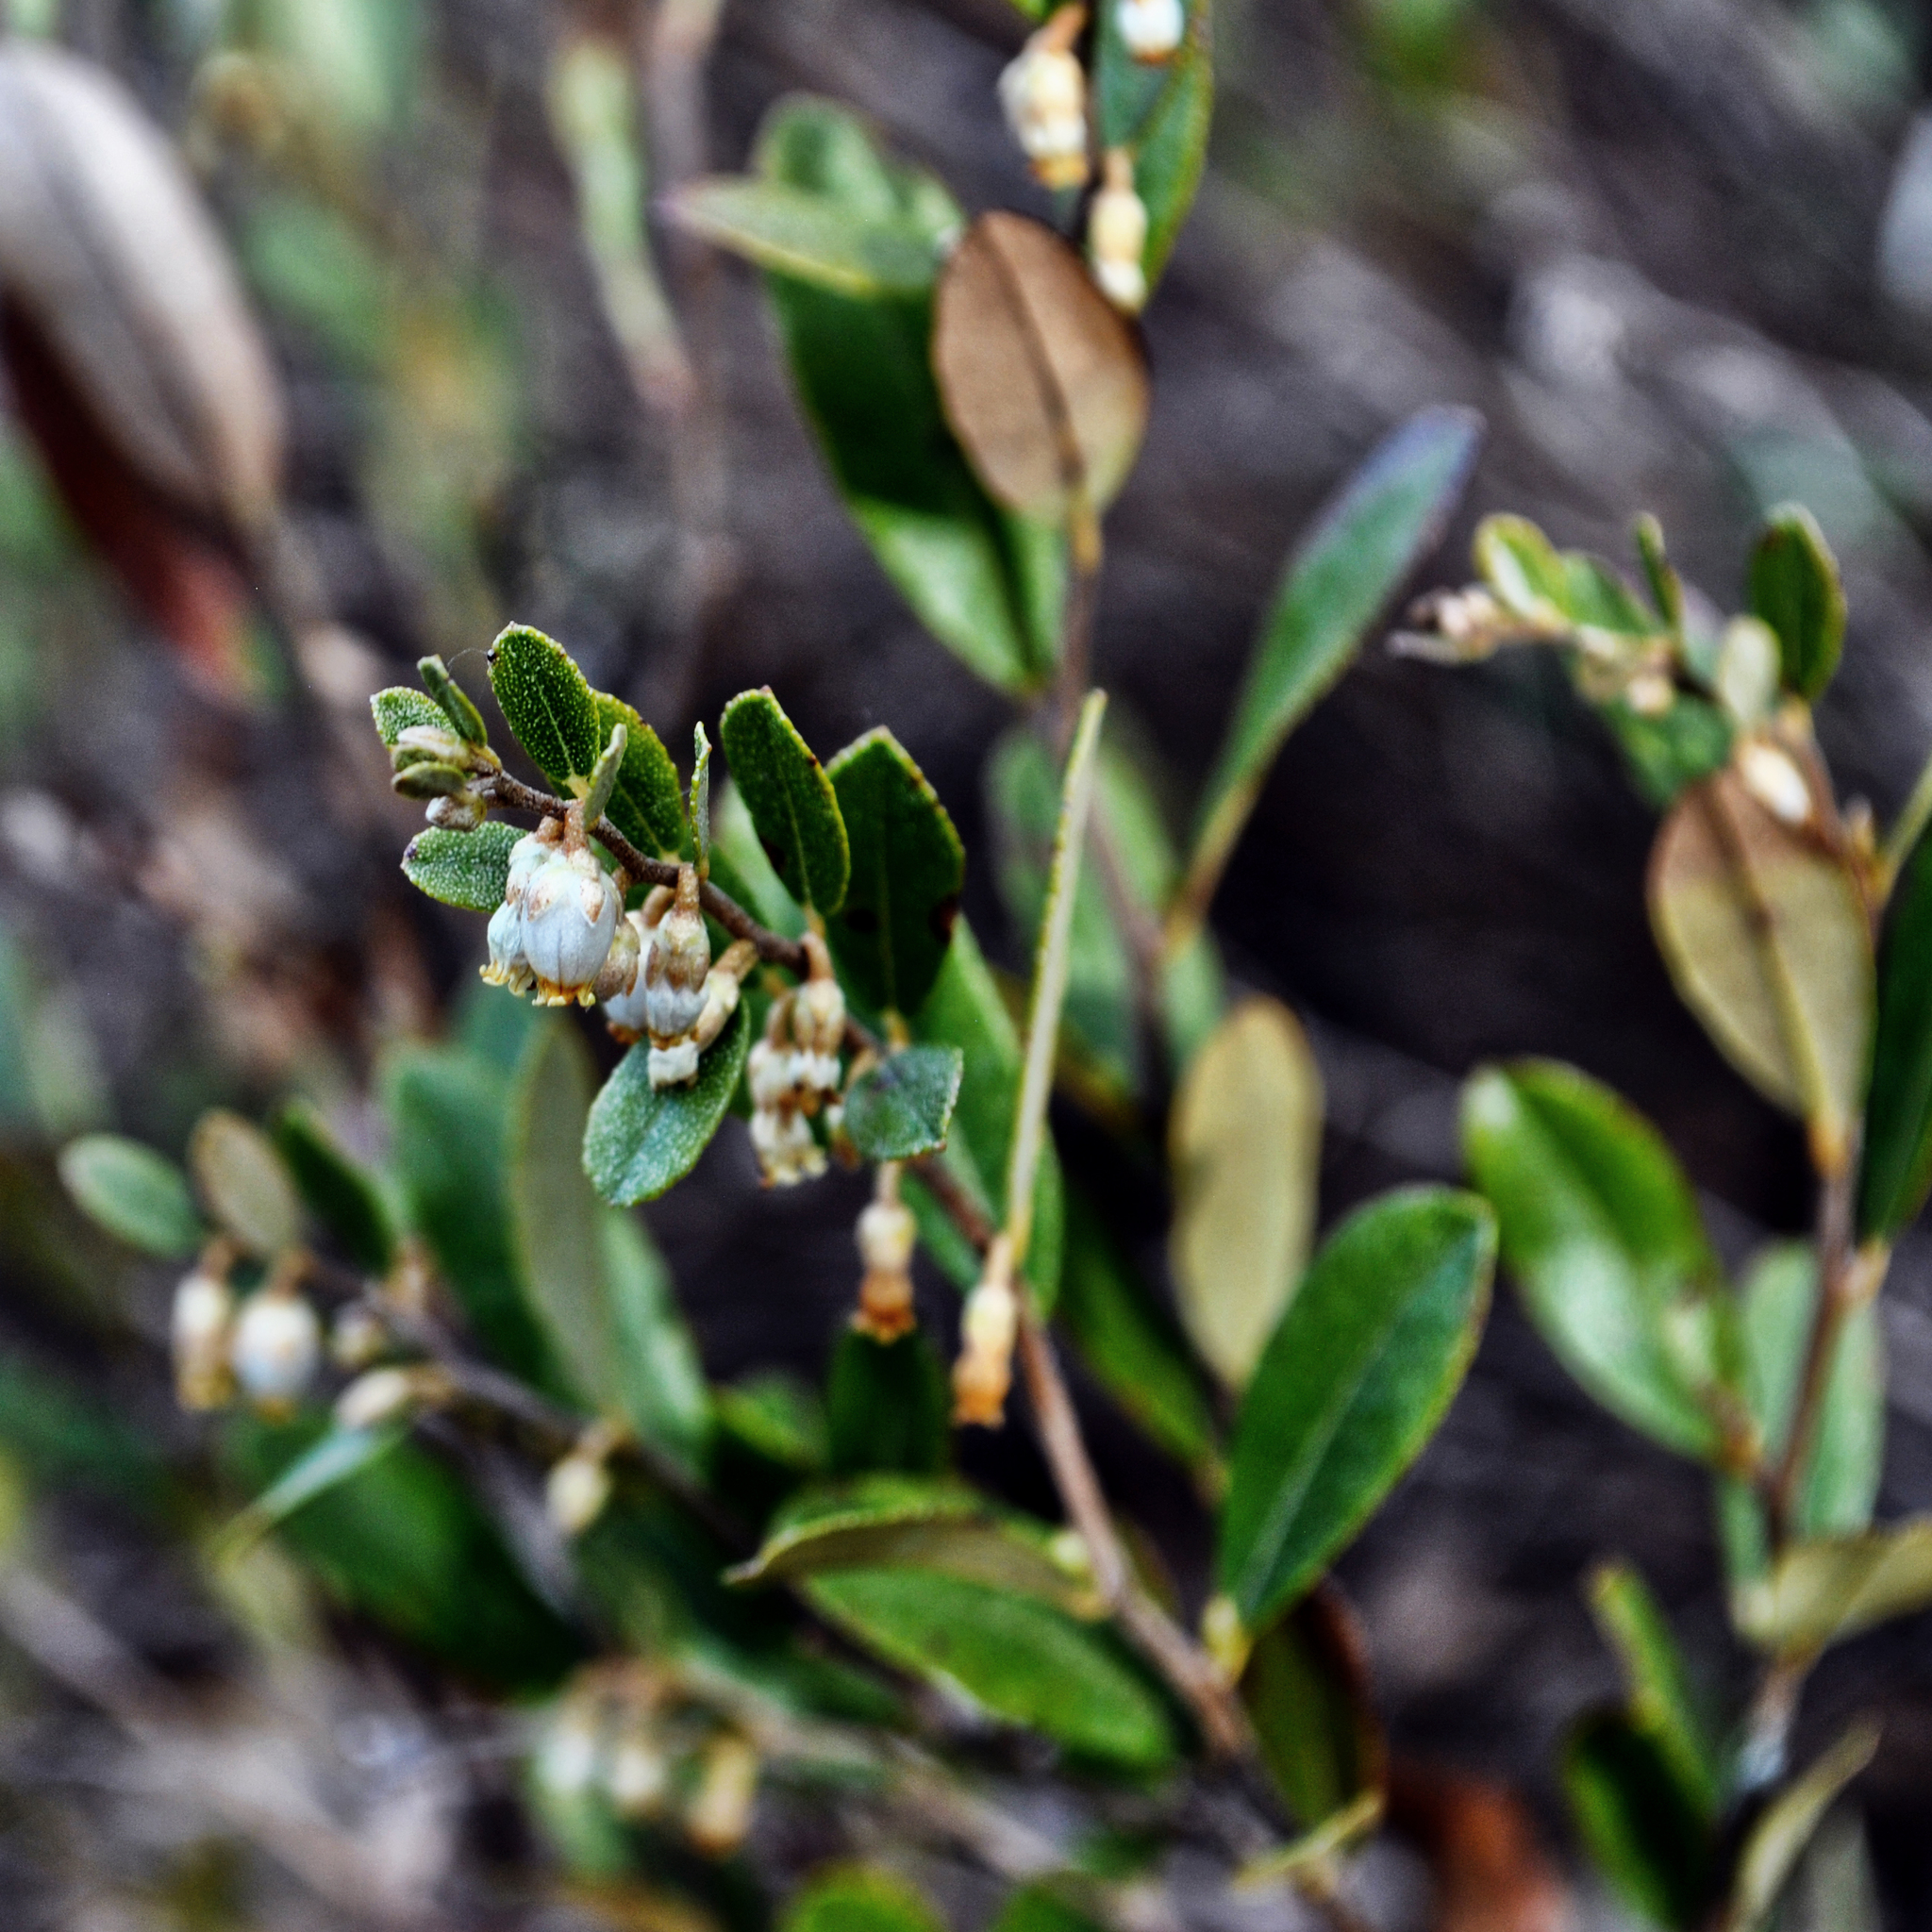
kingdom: Plantae
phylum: Tracheophyta
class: Magnoliopsida
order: Ericales
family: Ericaceae
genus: Chamaedaphne
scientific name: Chamaedaphne calyculata
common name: Leatherleaf
